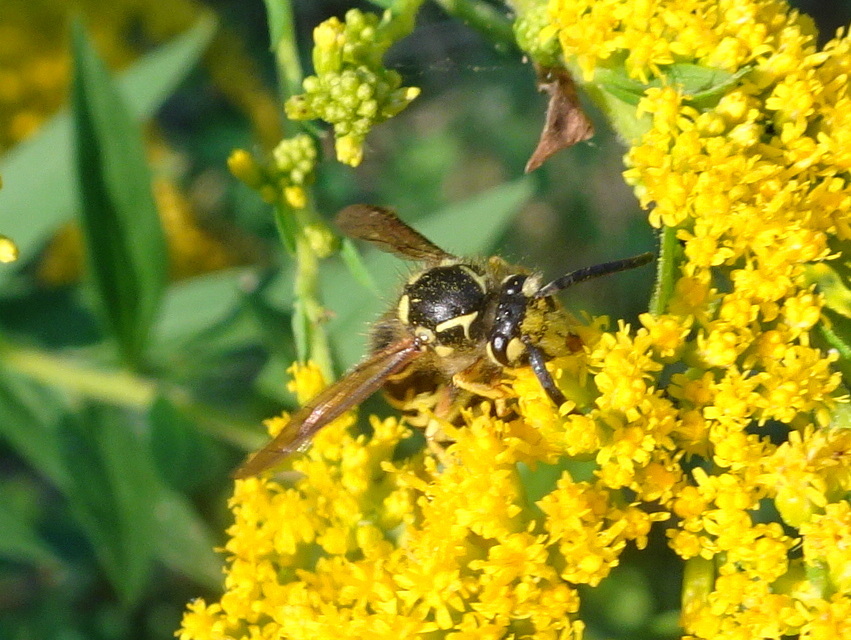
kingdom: Animalia
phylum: Arthropoda
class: Insecta
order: Hymenoptera
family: Vespidae
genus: Dolichovespula
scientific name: Dolichovespula arenaria
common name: Aerial yellowjacket
